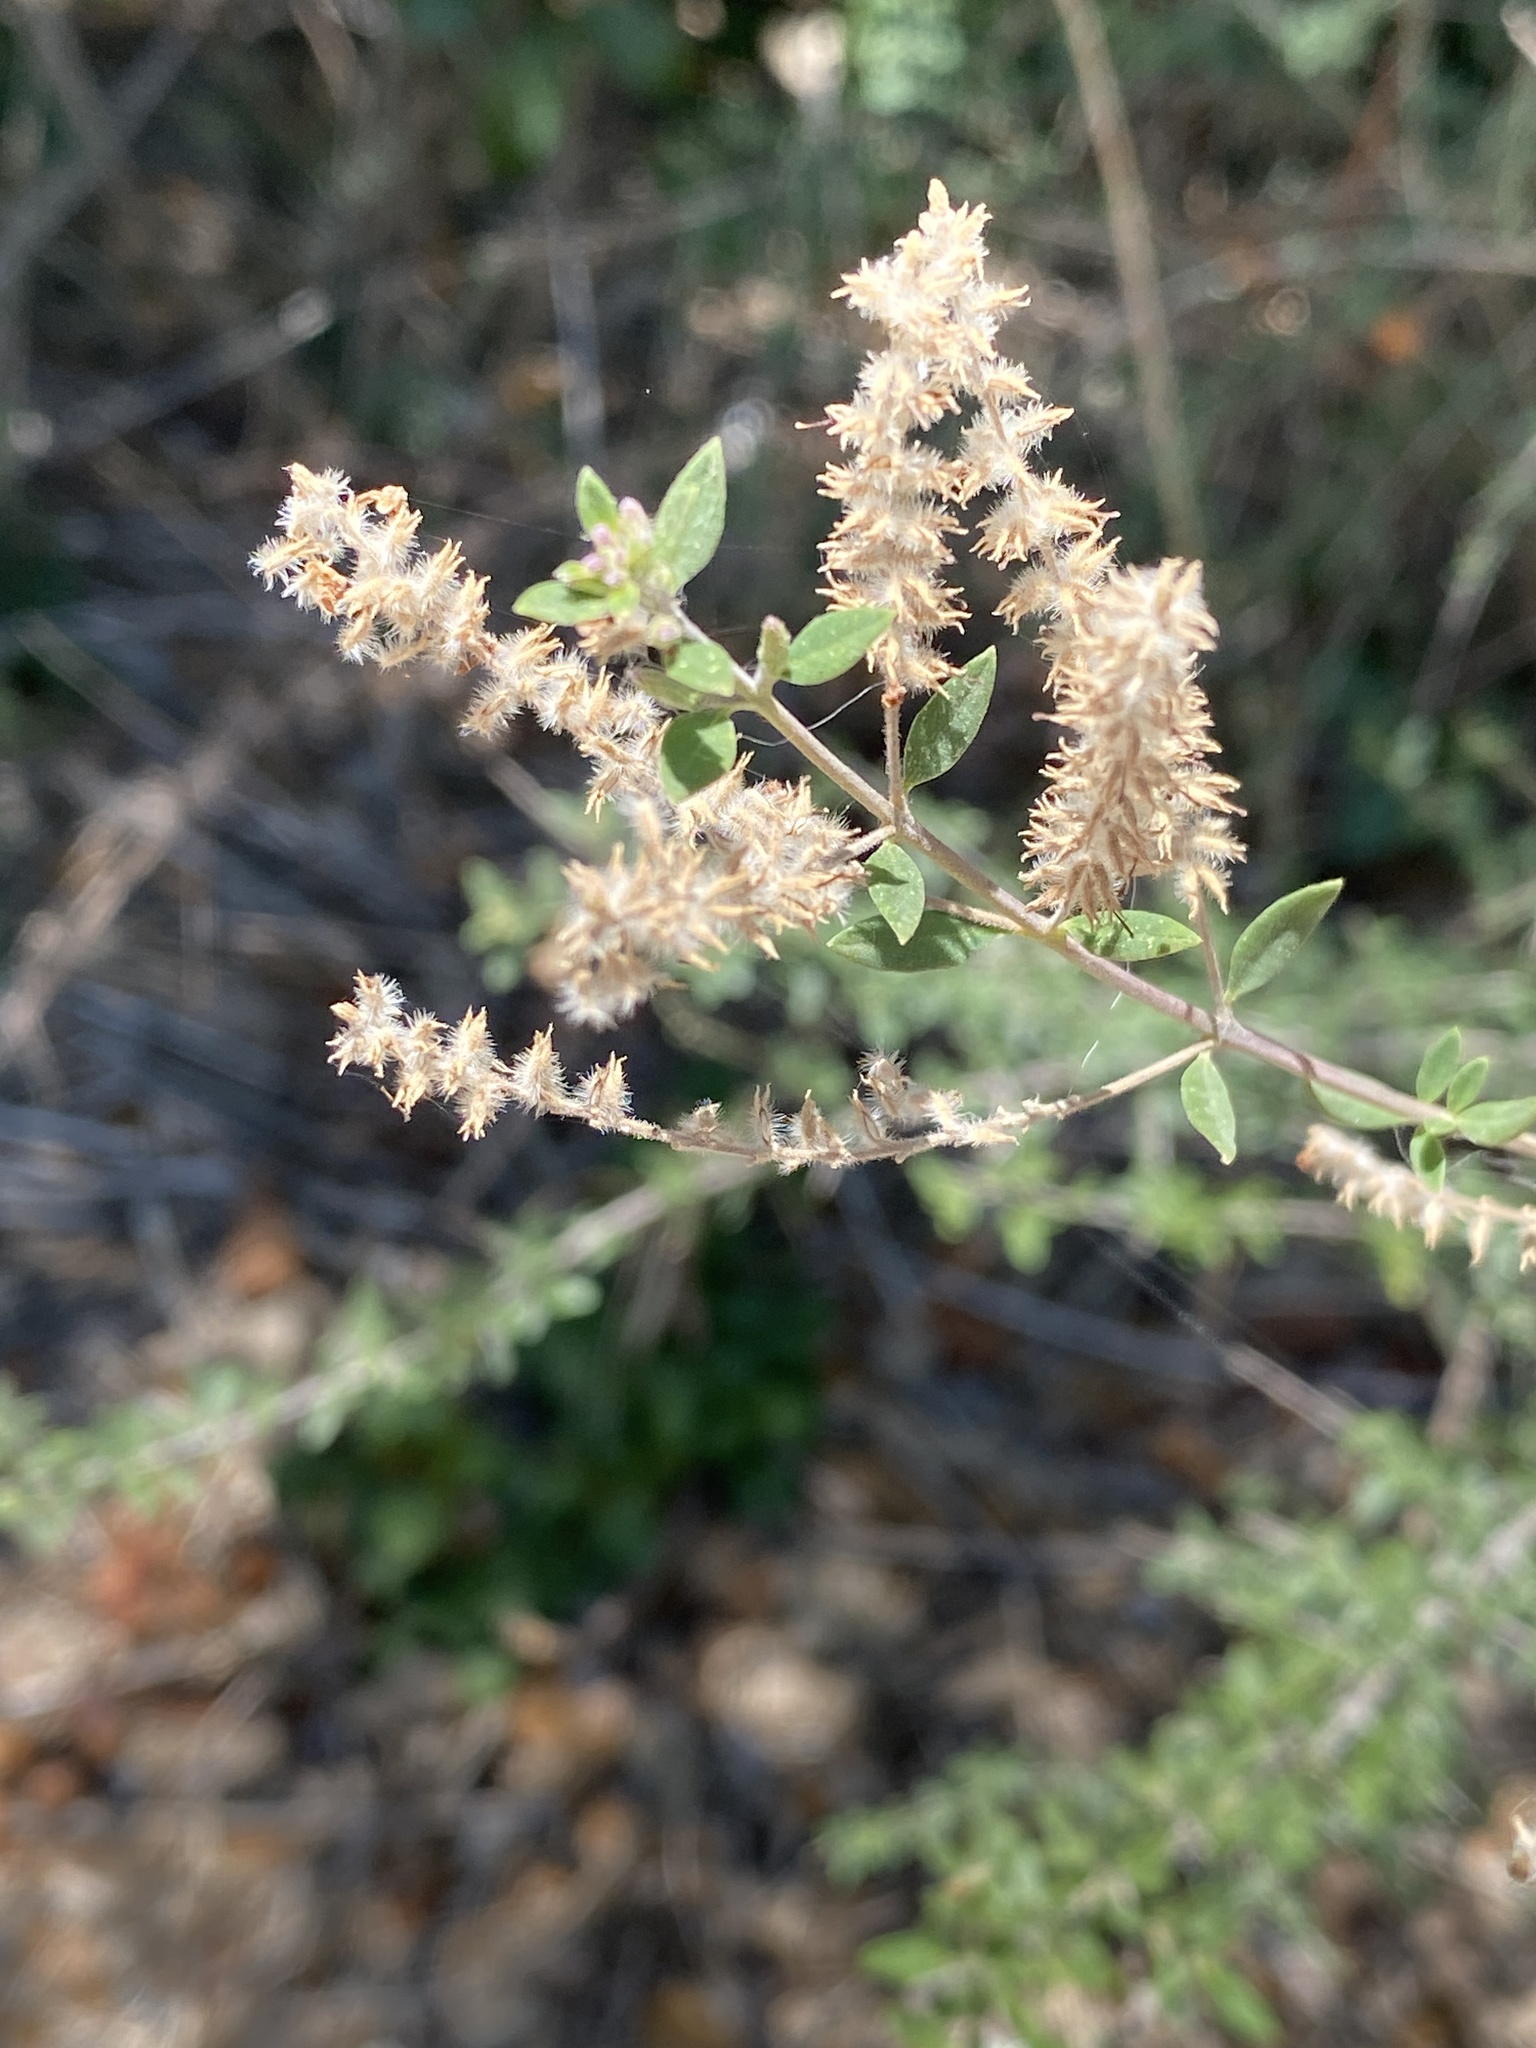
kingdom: Plantae
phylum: Tracheophyta
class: Magnoliopsida
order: Lamiales
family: Verbenaceae
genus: Aloysia
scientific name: Aloysia gratissima
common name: Common bee-brush
